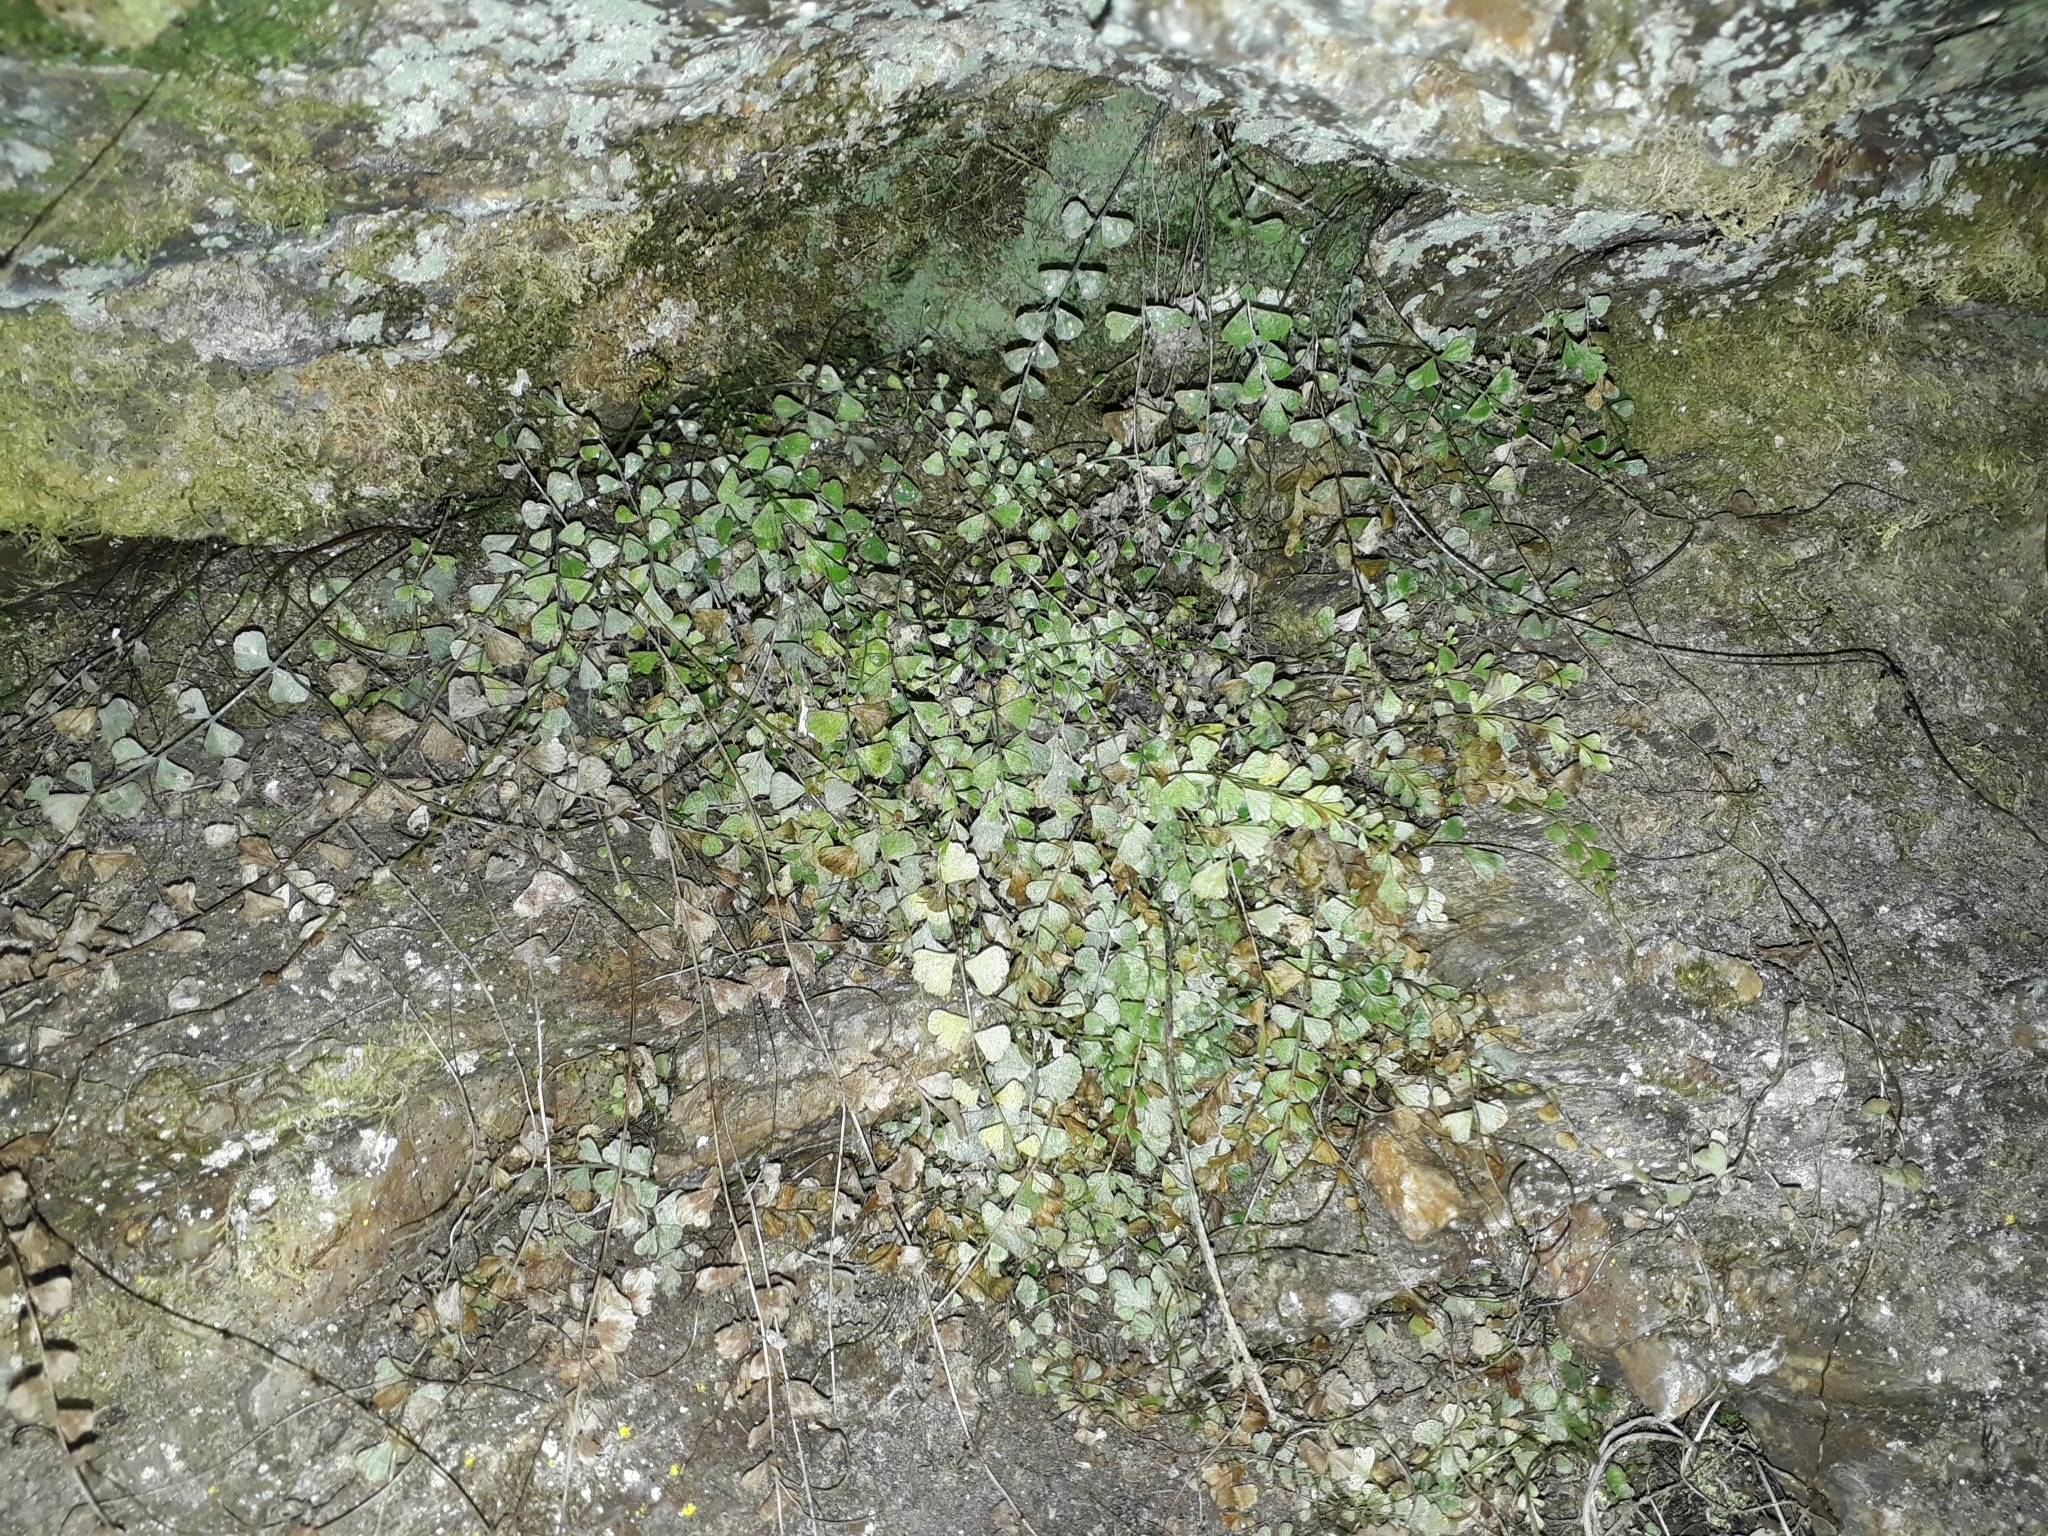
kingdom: Plantae
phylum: Tracheophyta
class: Polypodiopsida
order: Polypodiales
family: Aspleniaceae
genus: Asplenium
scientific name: Asplenium flabellifolium
